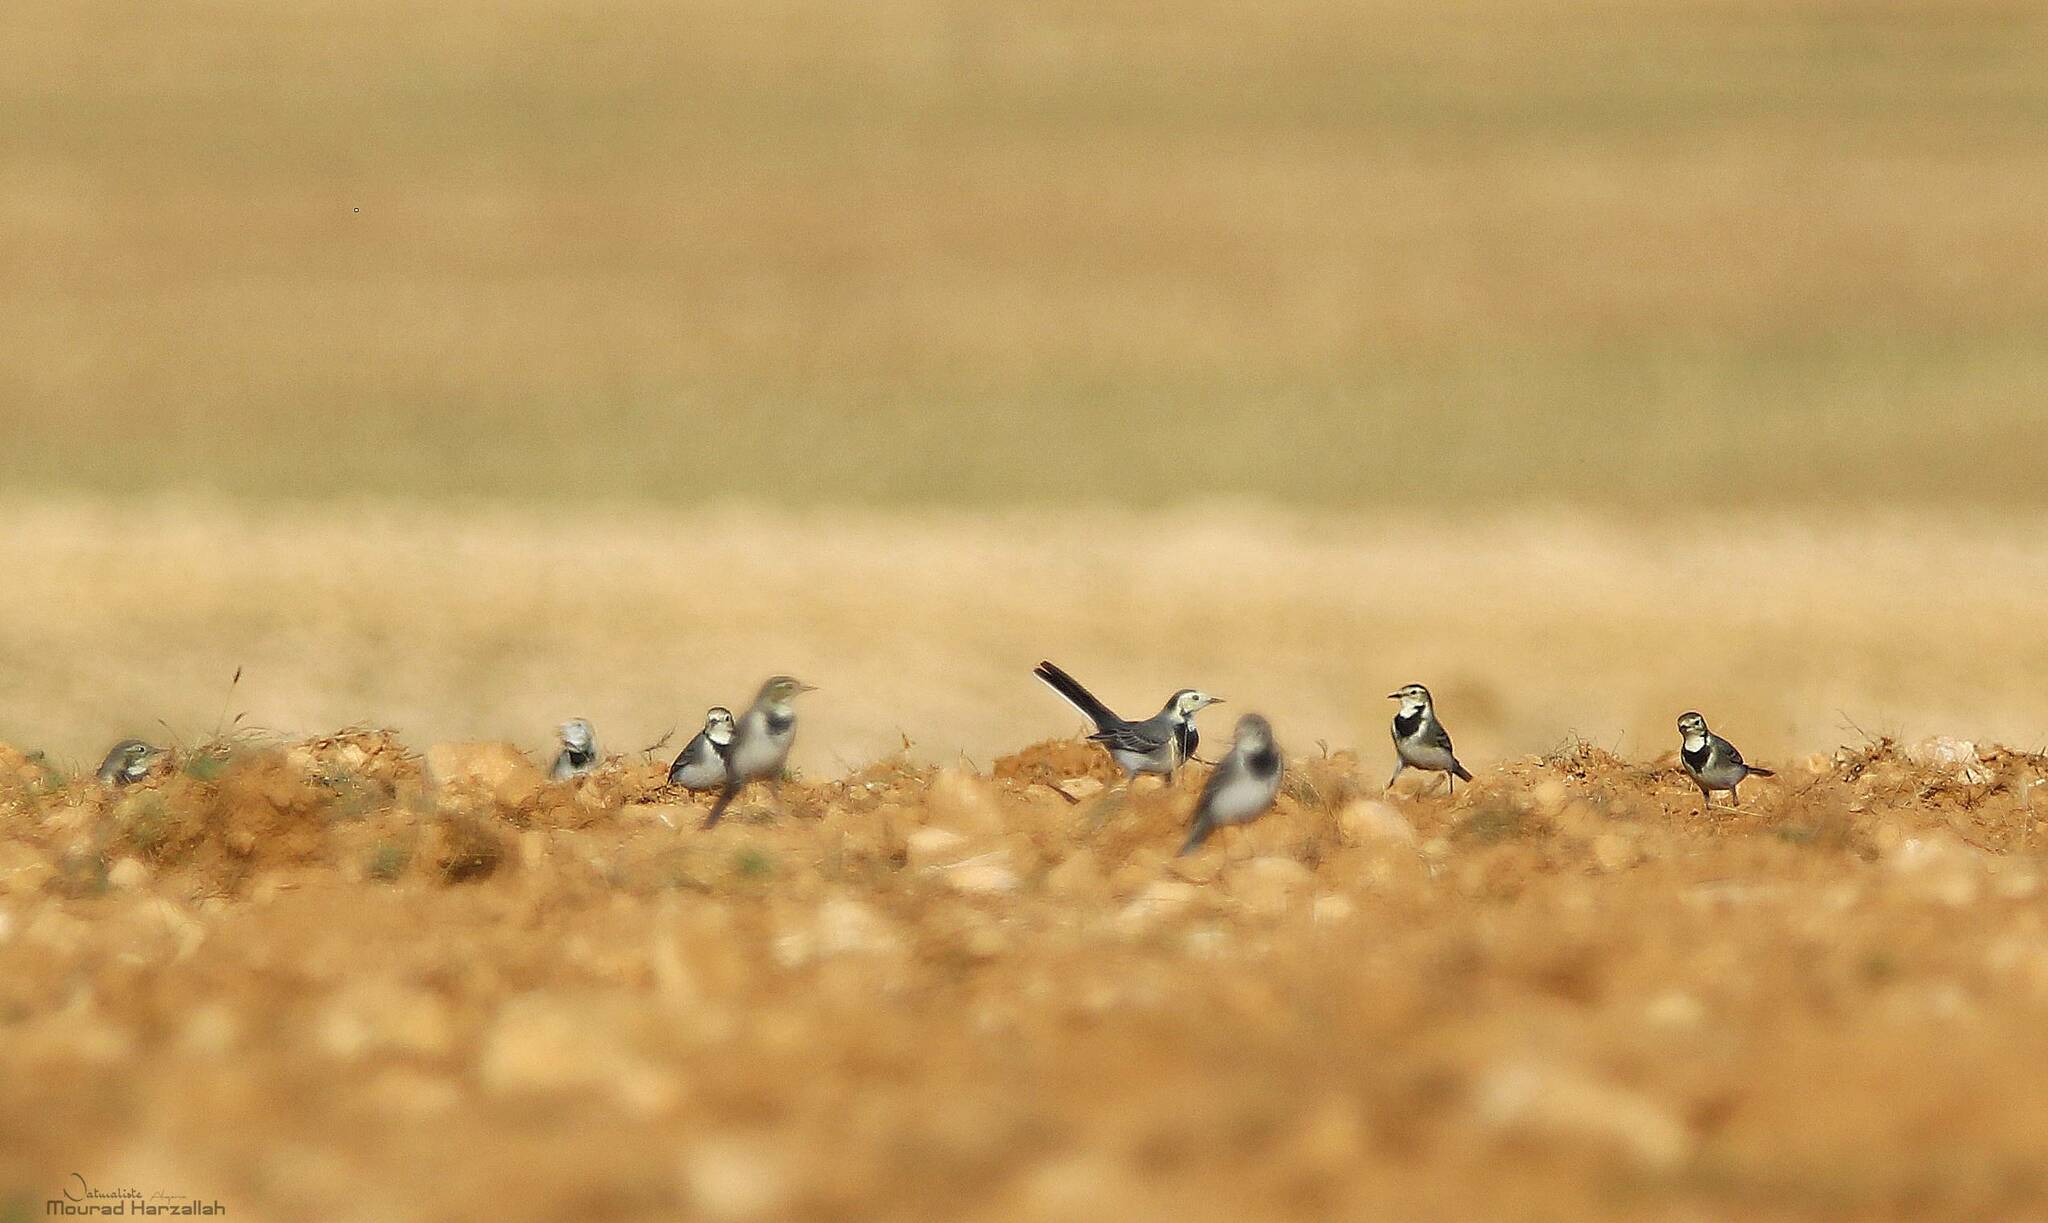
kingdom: Animalia
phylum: Chordata
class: Aves
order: Passeriformes
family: Motacillidae
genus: Motacilla
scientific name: Motacilla alba
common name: White wagtail
